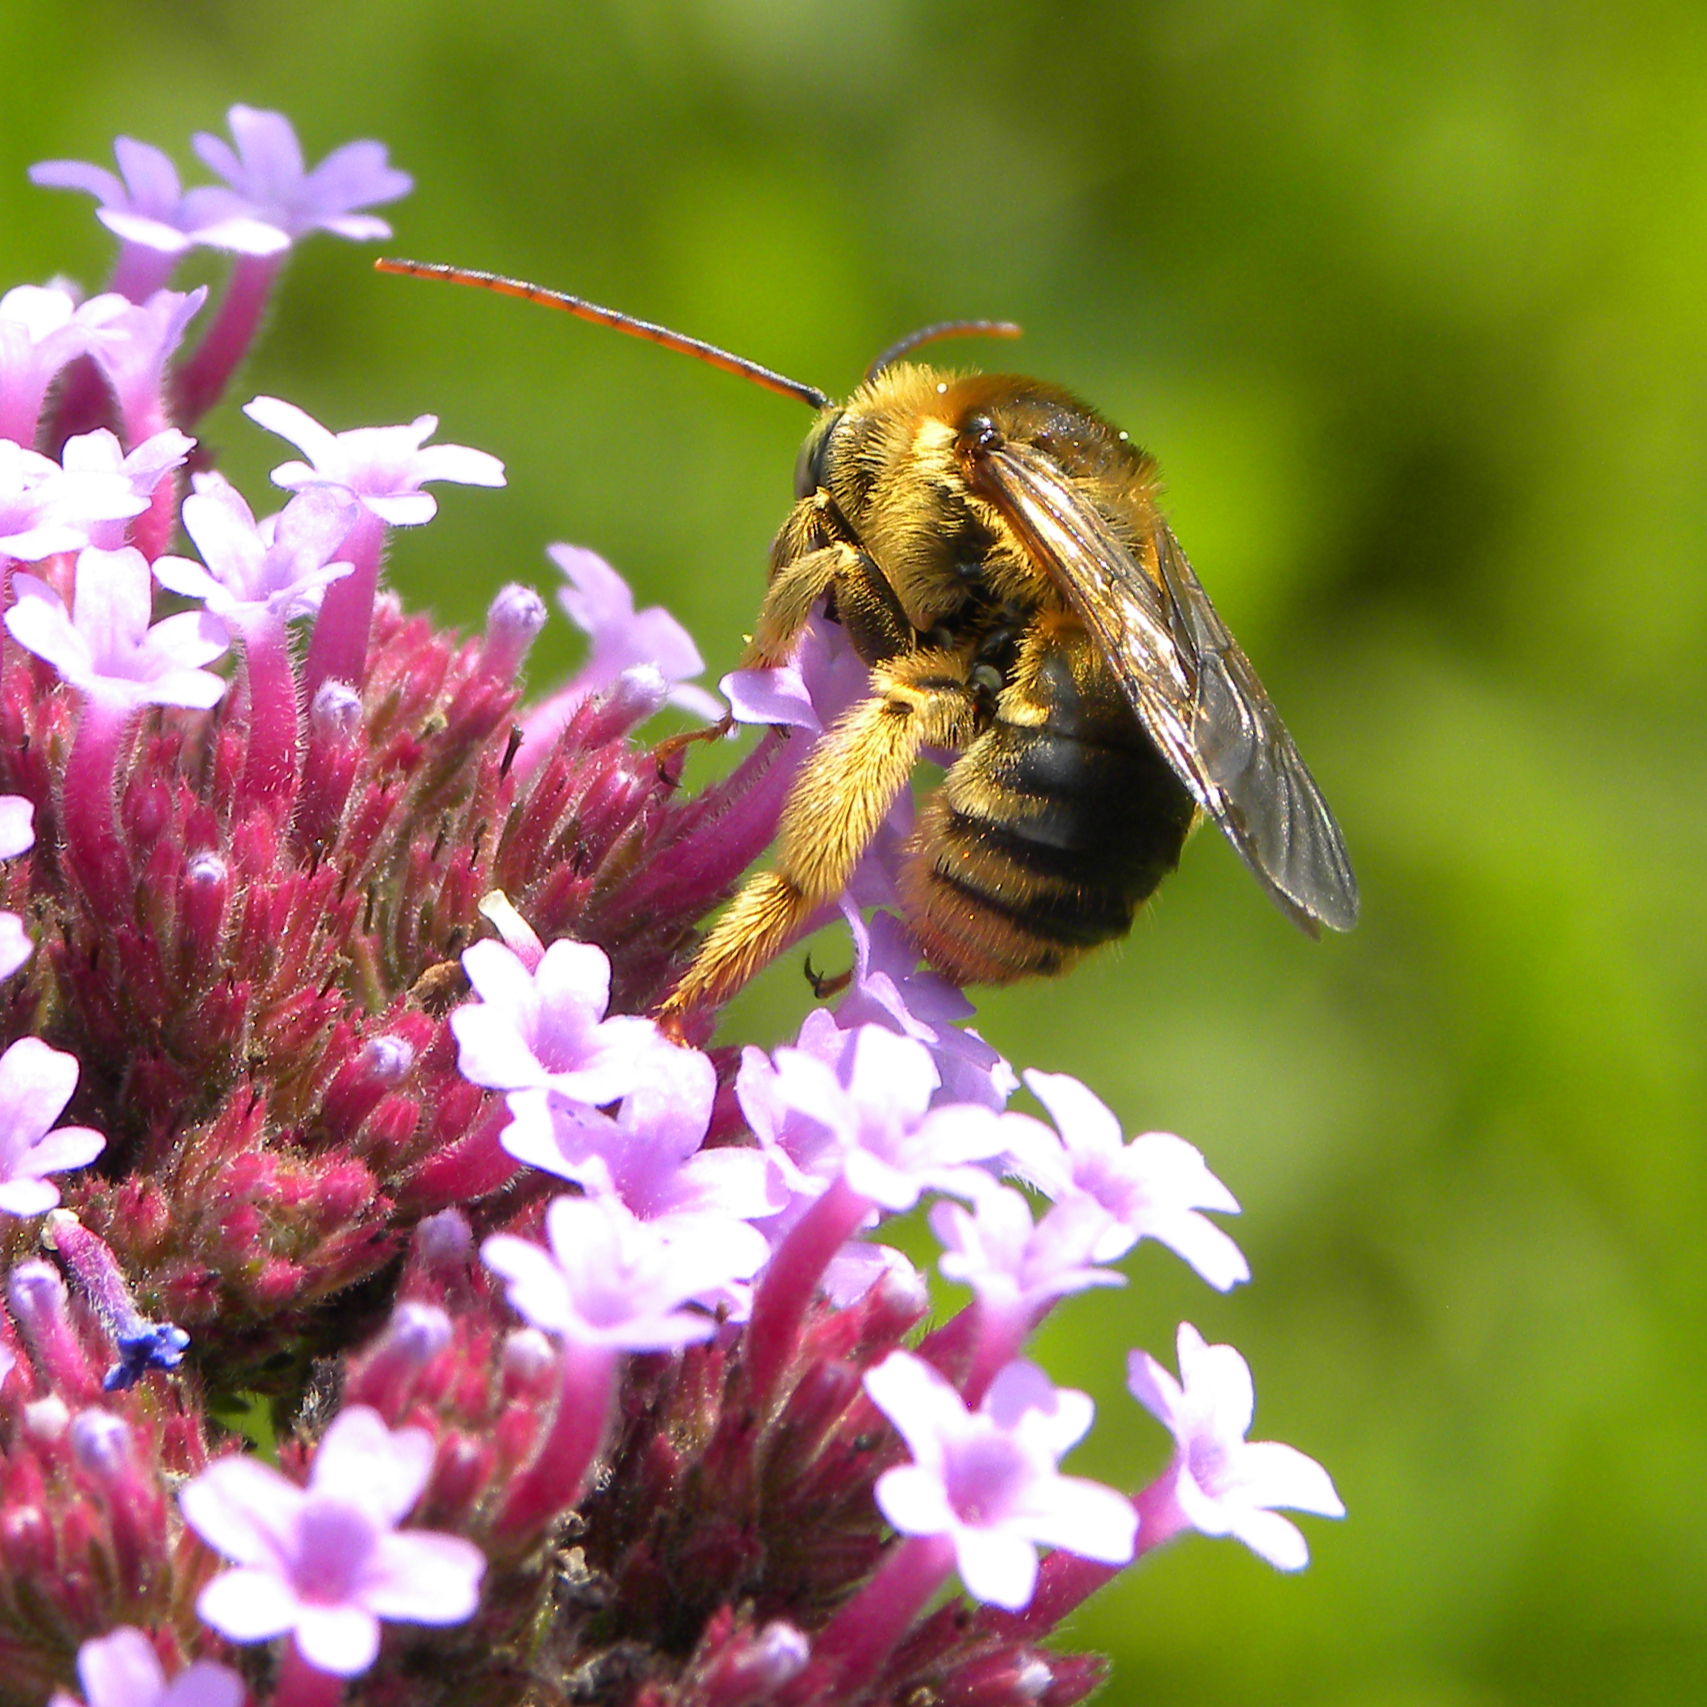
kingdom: Animalia
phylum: Arthropoda
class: Insecta
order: Hymenoptera
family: Apidae
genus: Apidae
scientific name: Apidae
